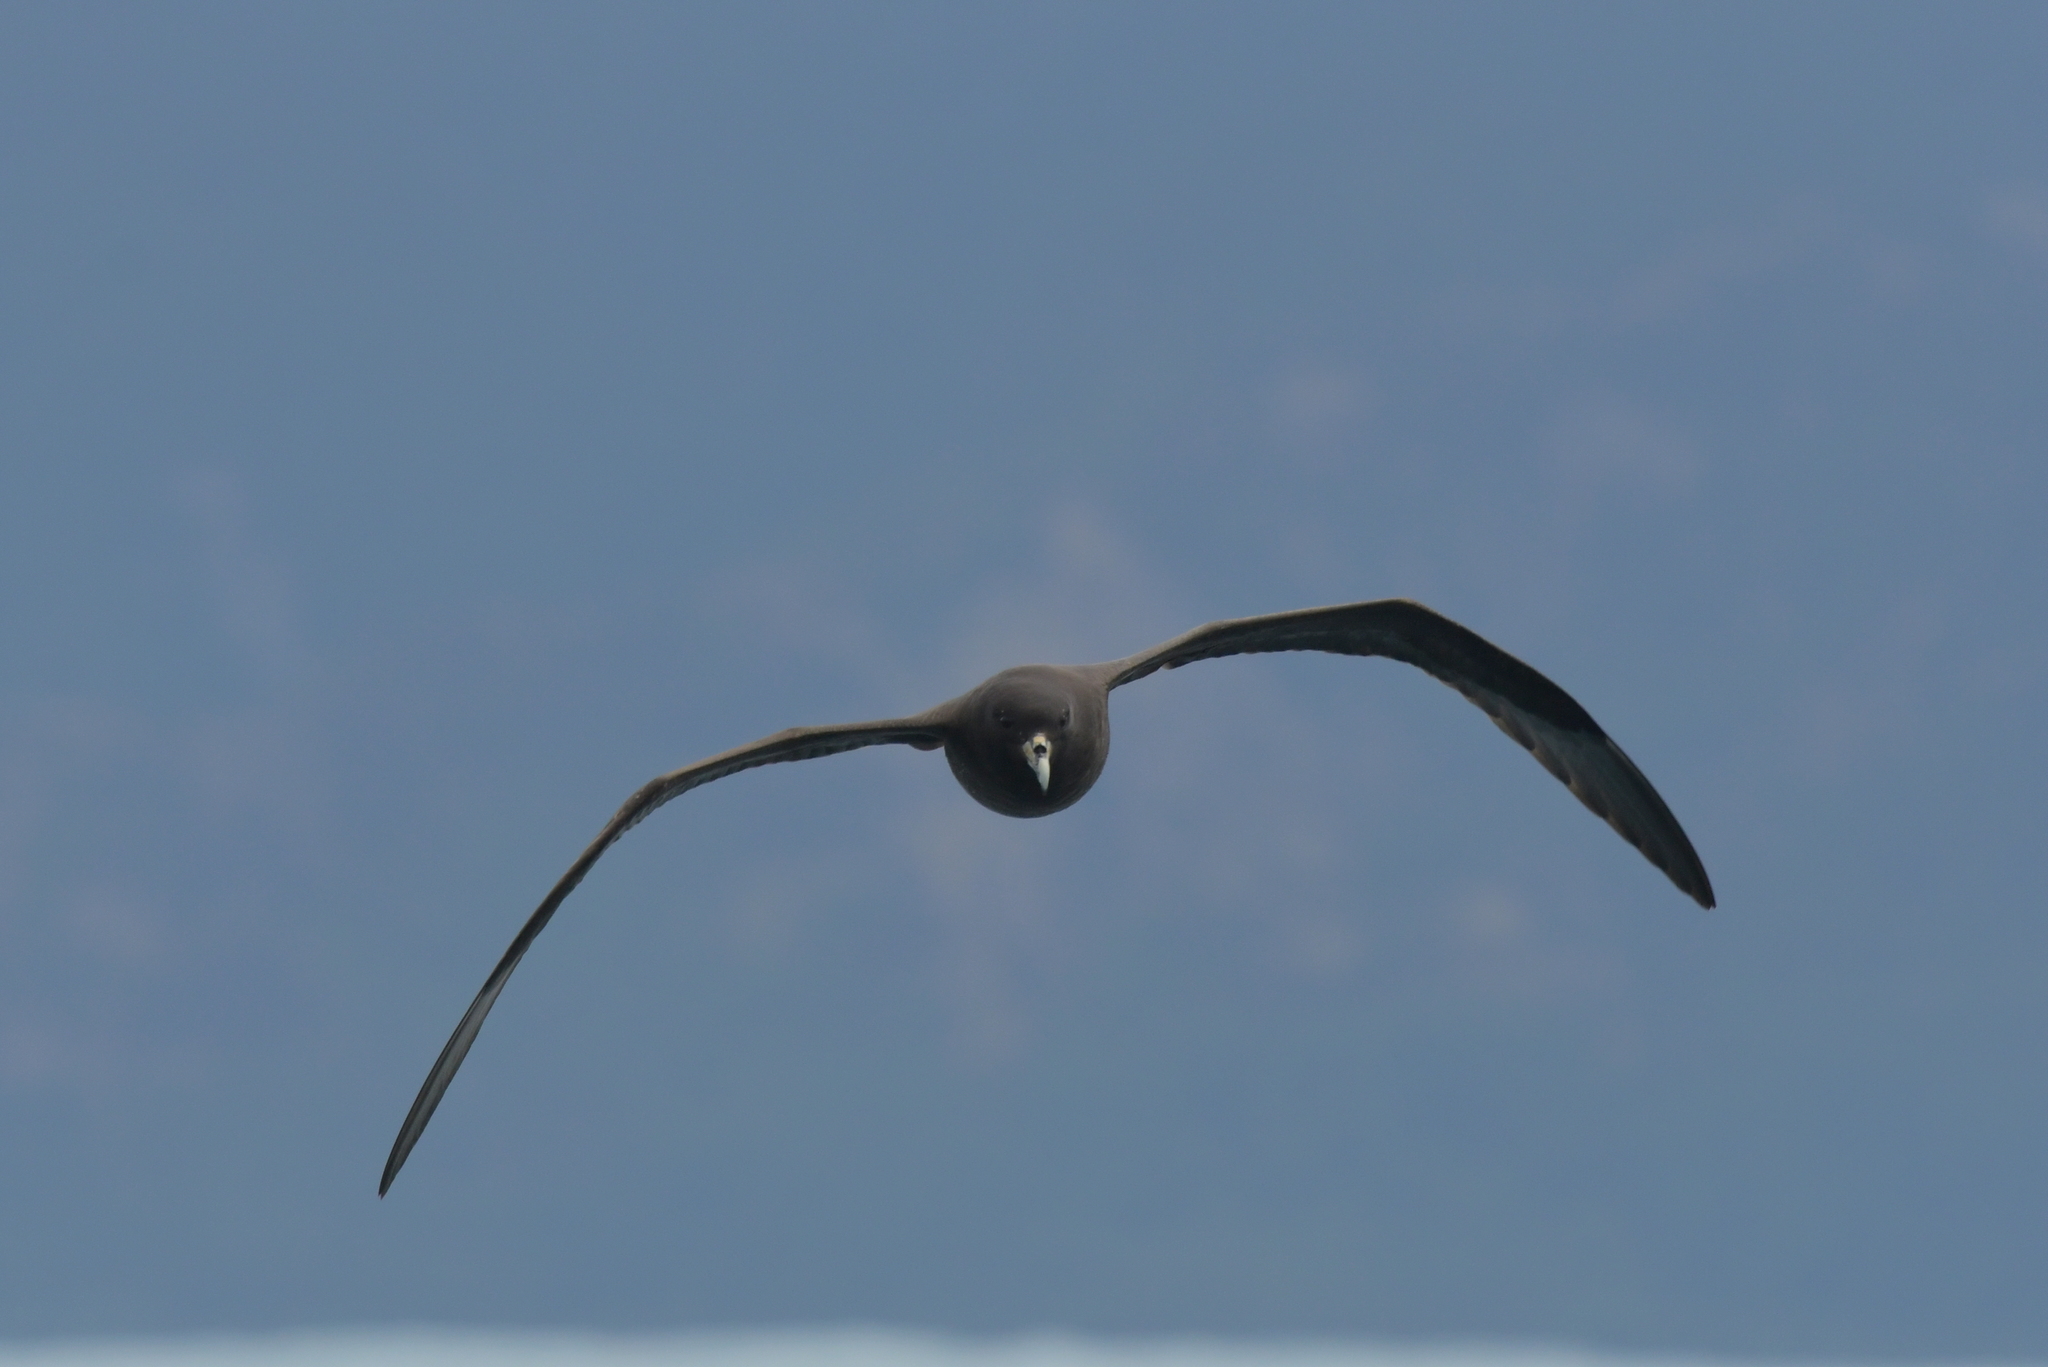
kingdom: Animalia
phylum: Chordata
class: Aves
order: Procellariiformes
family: Procellariidae
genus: Procellaria
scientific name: Procellaria aequinoctialis
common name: White-chinned petrel
